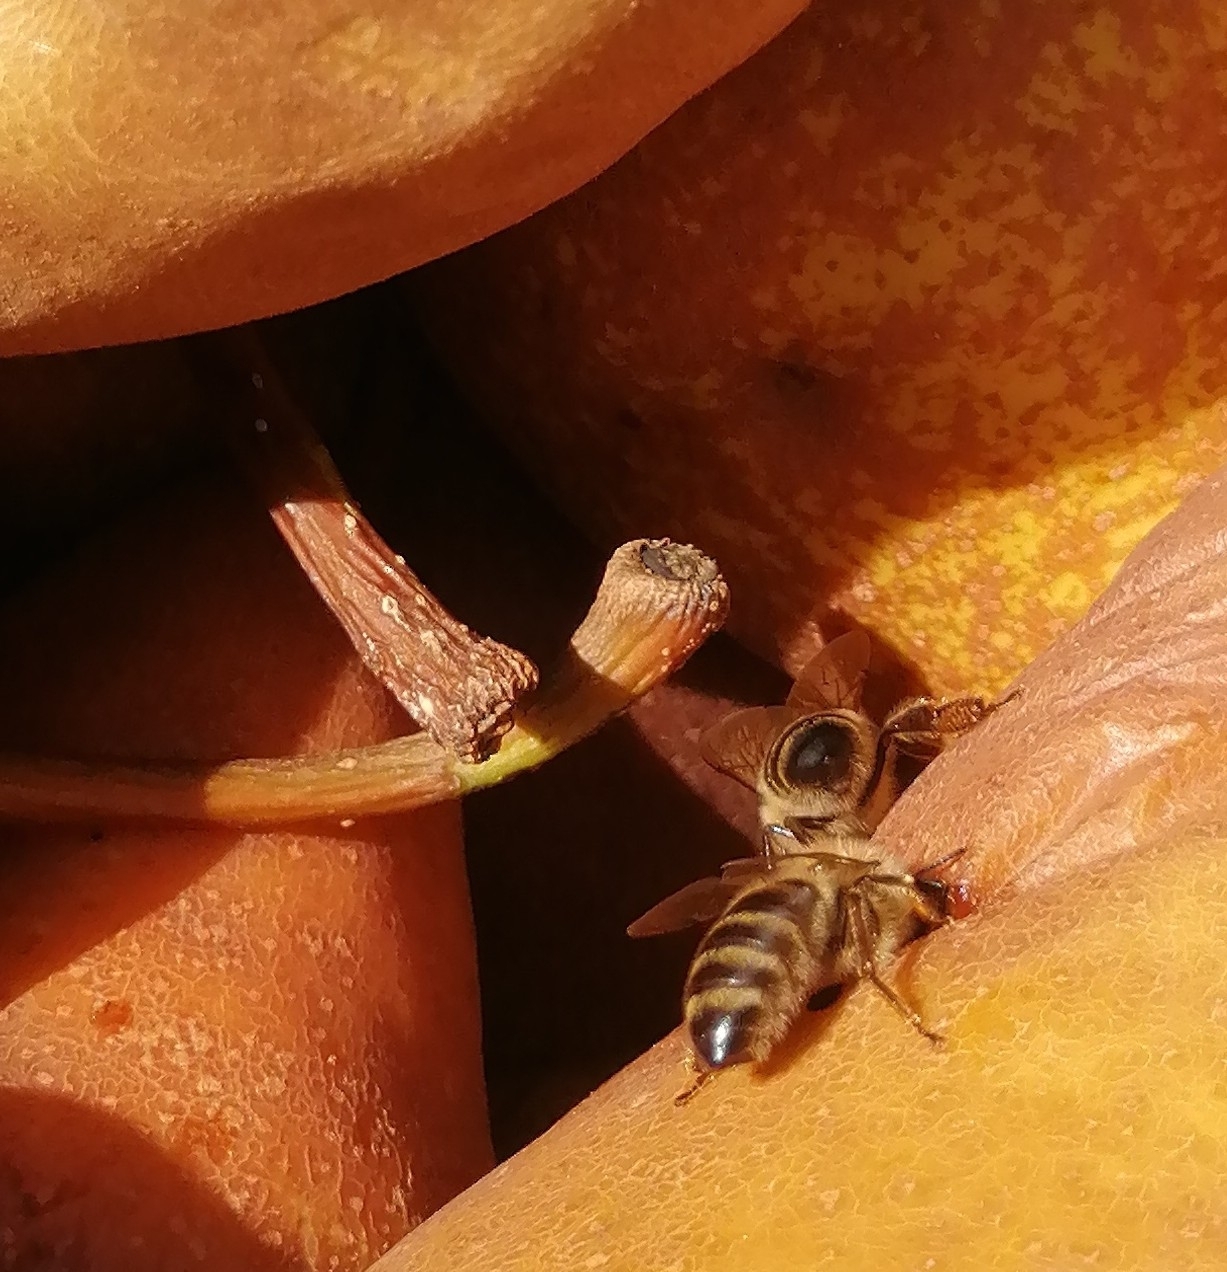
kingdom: Animalia
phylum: Arthropoda
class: Insecta
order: Hymenoptera
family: Apidae
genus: Apis
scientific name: Apis mellifera
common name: Honey bee
